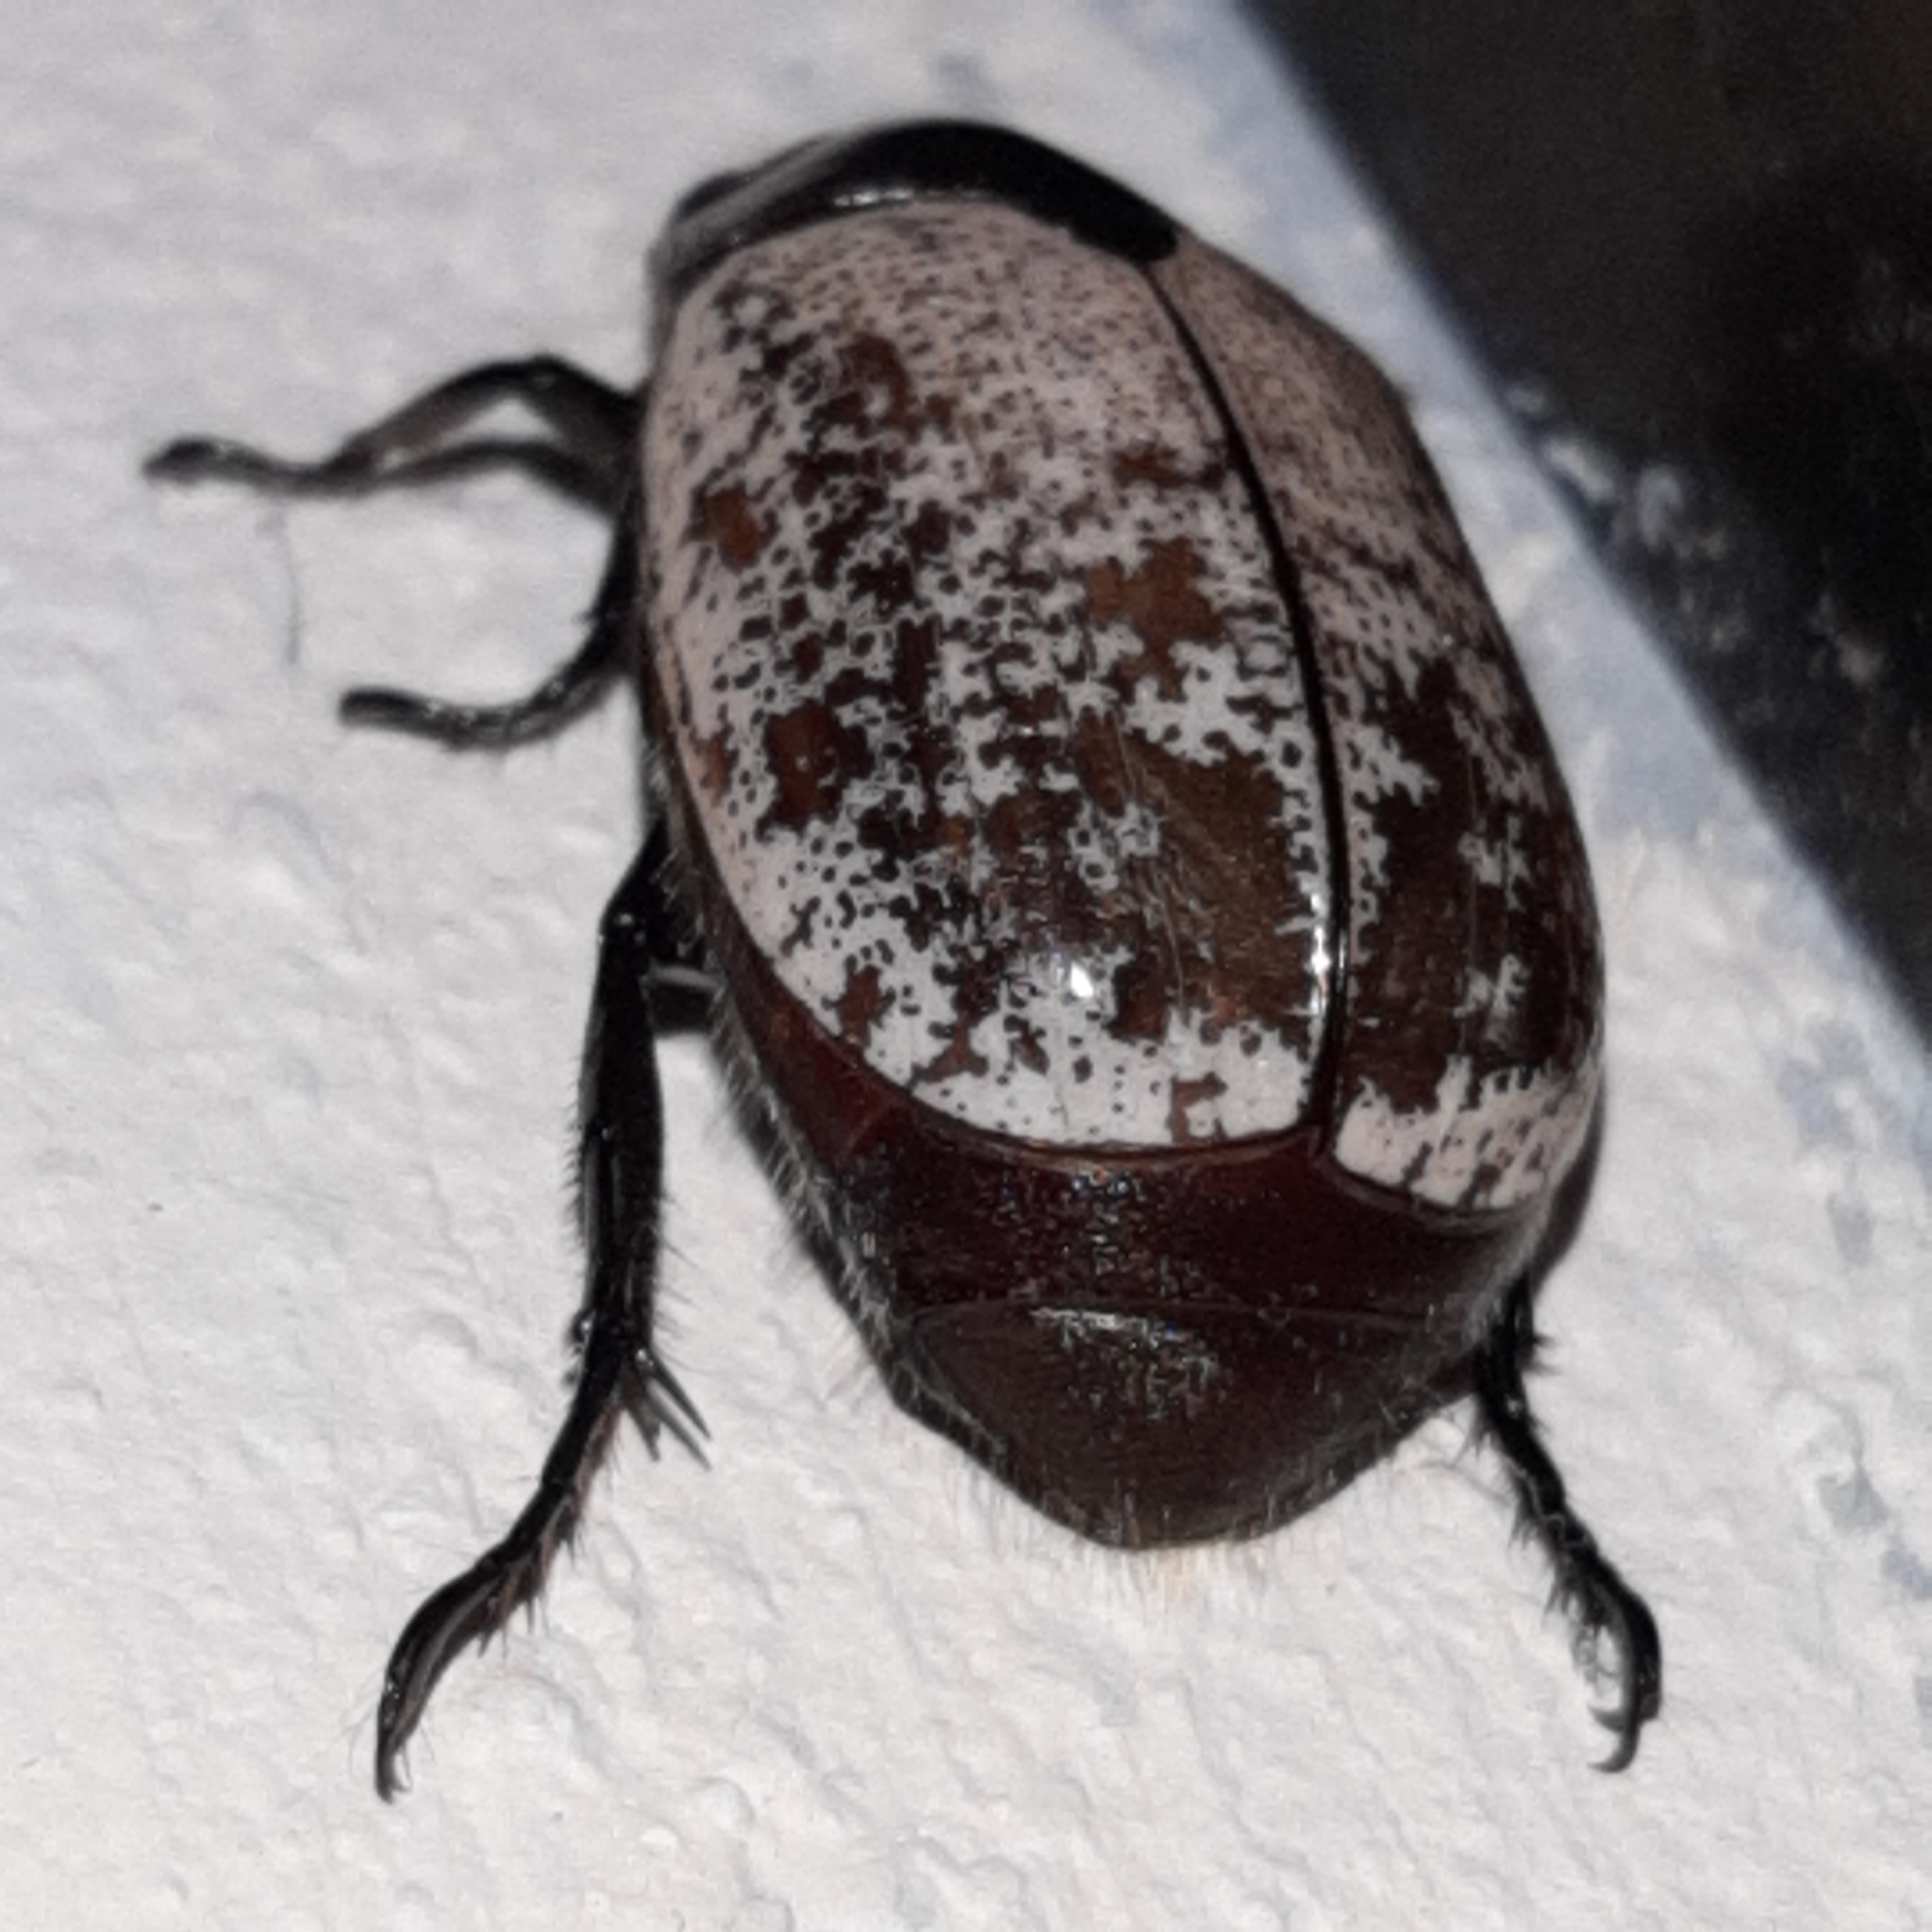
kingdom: Animalia
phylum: Arthropoda
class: Insecta
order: Coleoptera
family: Scarabaeidae
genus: Callistethus
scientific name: Callistethus
